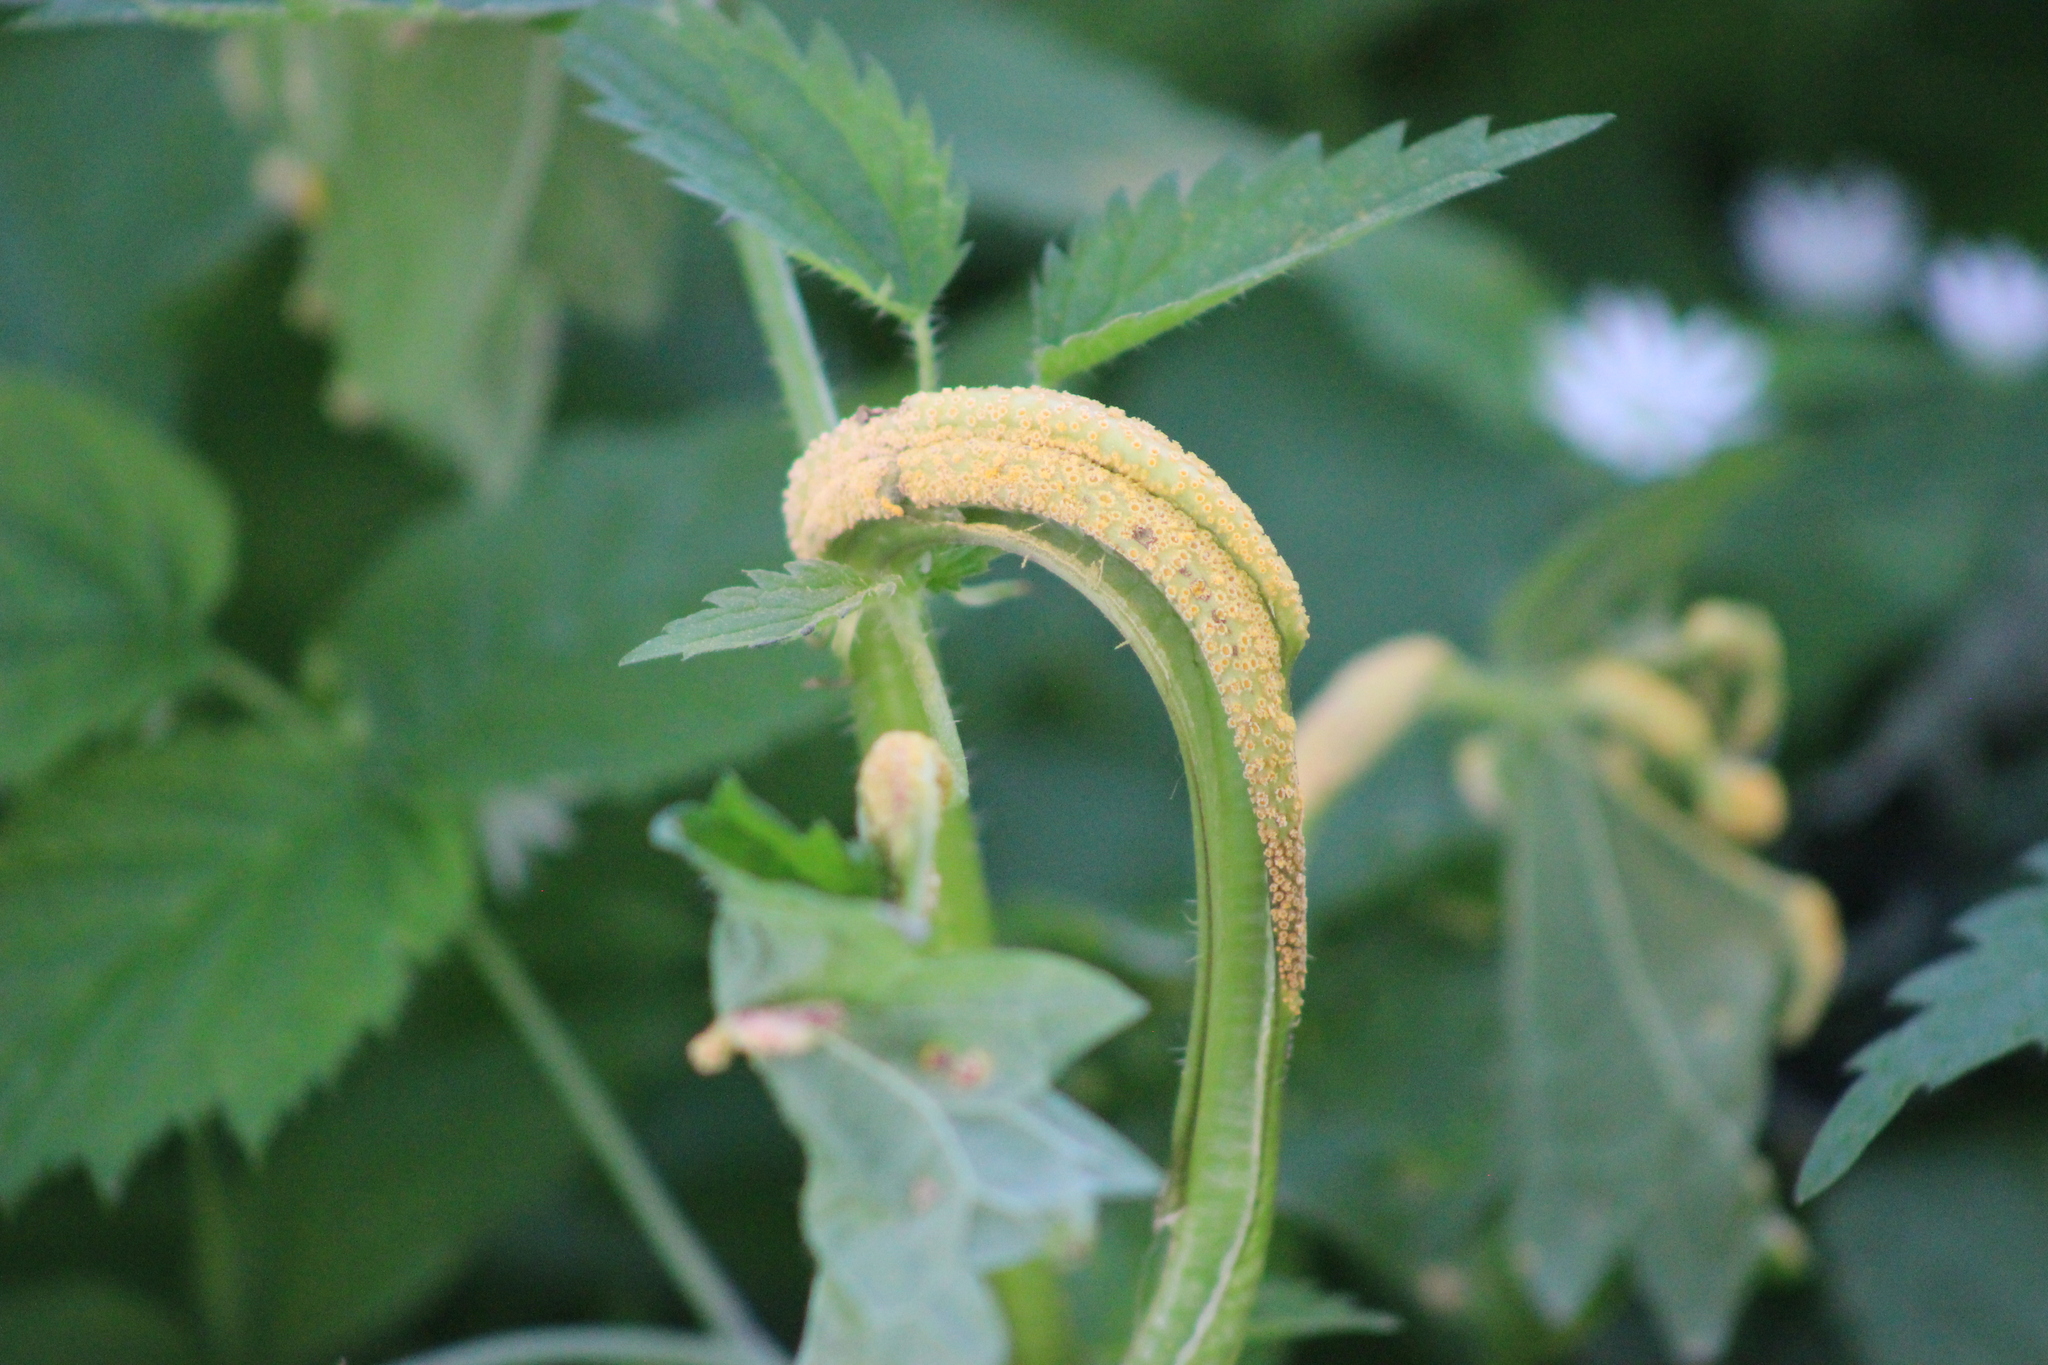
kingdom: Fungi
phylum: Basidiomycota
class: Pucciniomycetes
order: Pucciniales
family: Pucciniaceae
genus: Puccinia
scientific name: Puccinia urticata
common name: Nettle clustercup rust fungus
